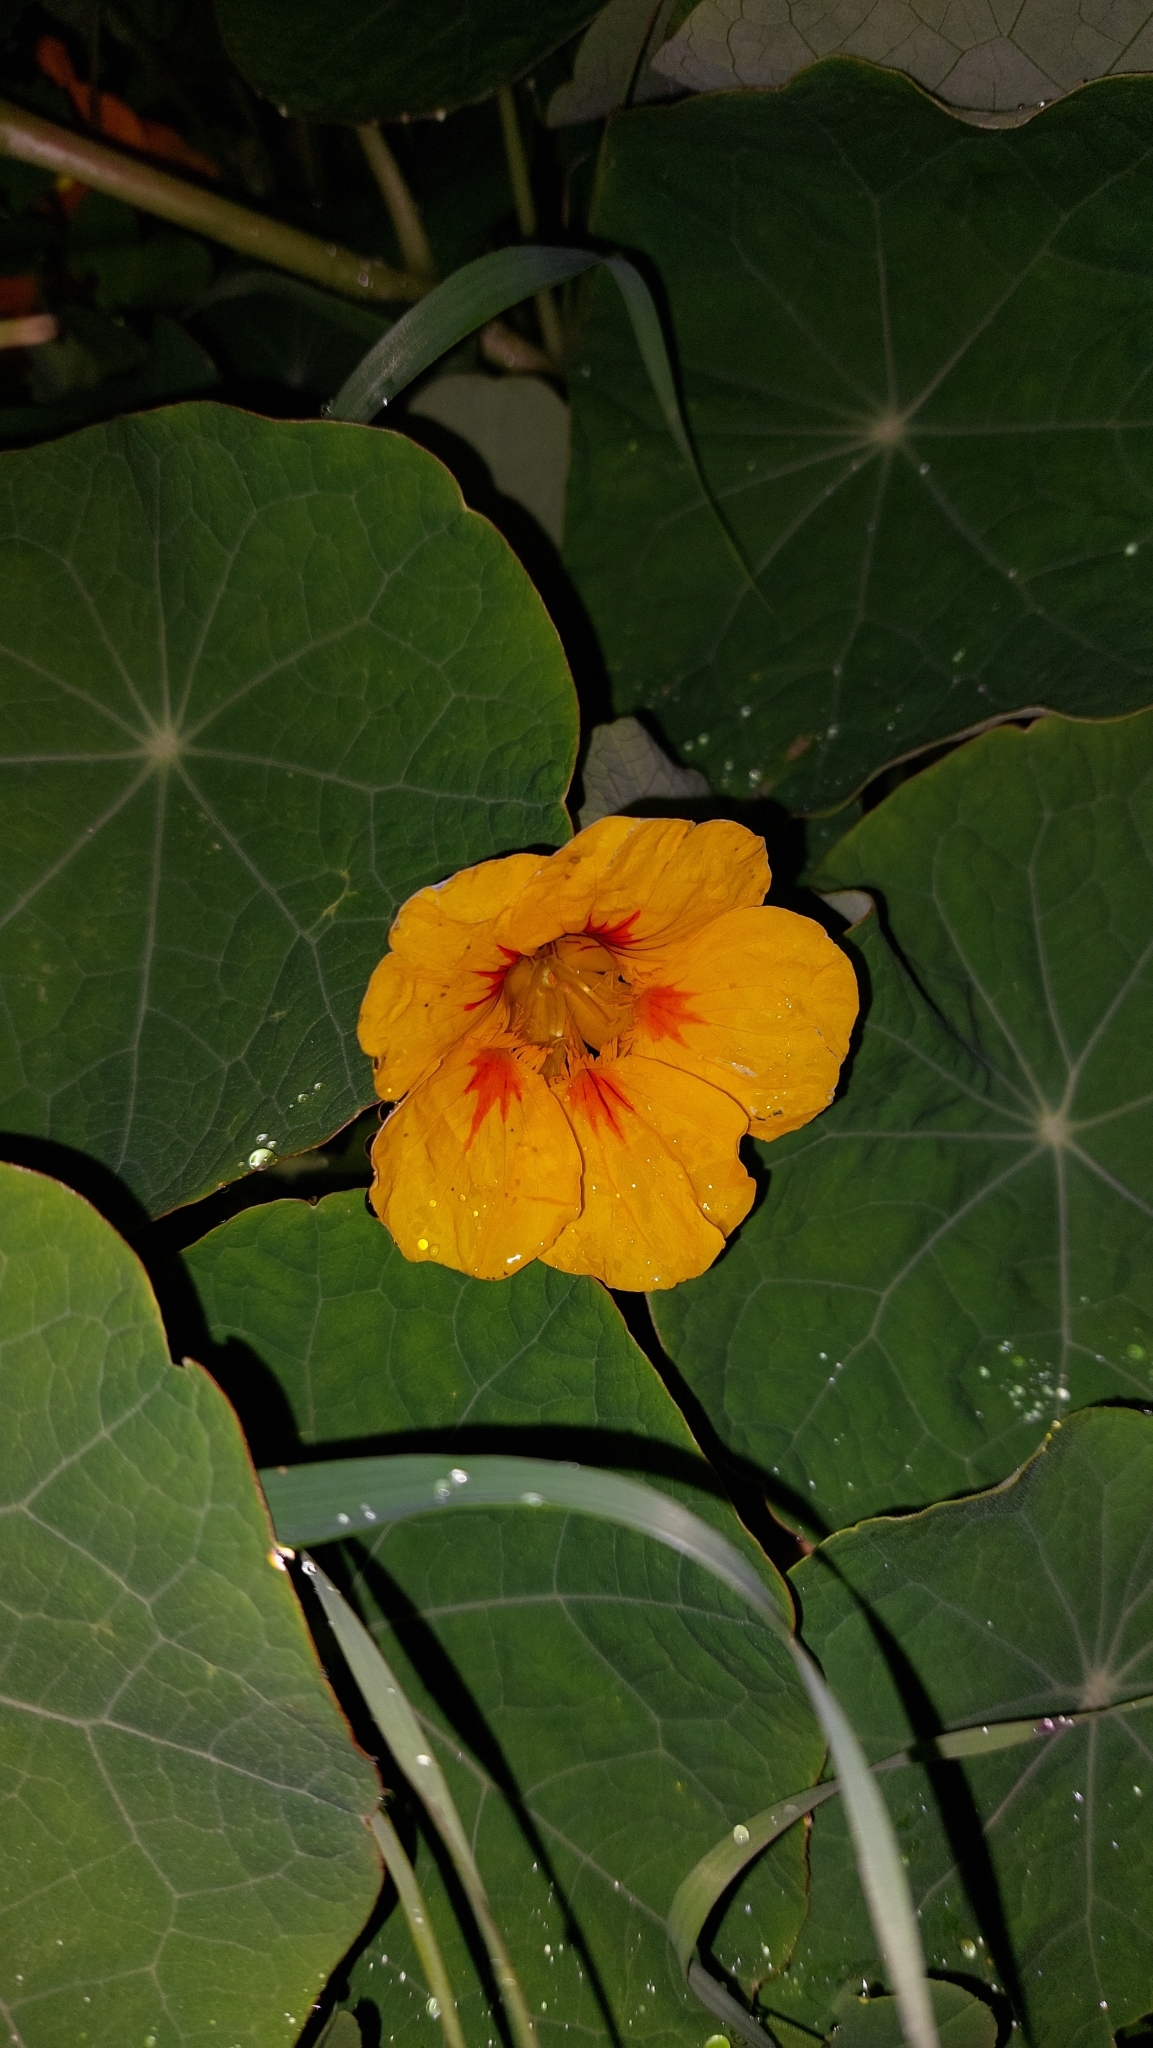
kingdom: Plantae
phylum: Tracheophyta
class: Magnoliopsida
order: Brassicales
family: Tropaeolaceae
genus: Tropaeolum
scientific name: Tropaeolum majus
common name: Nasturtium
